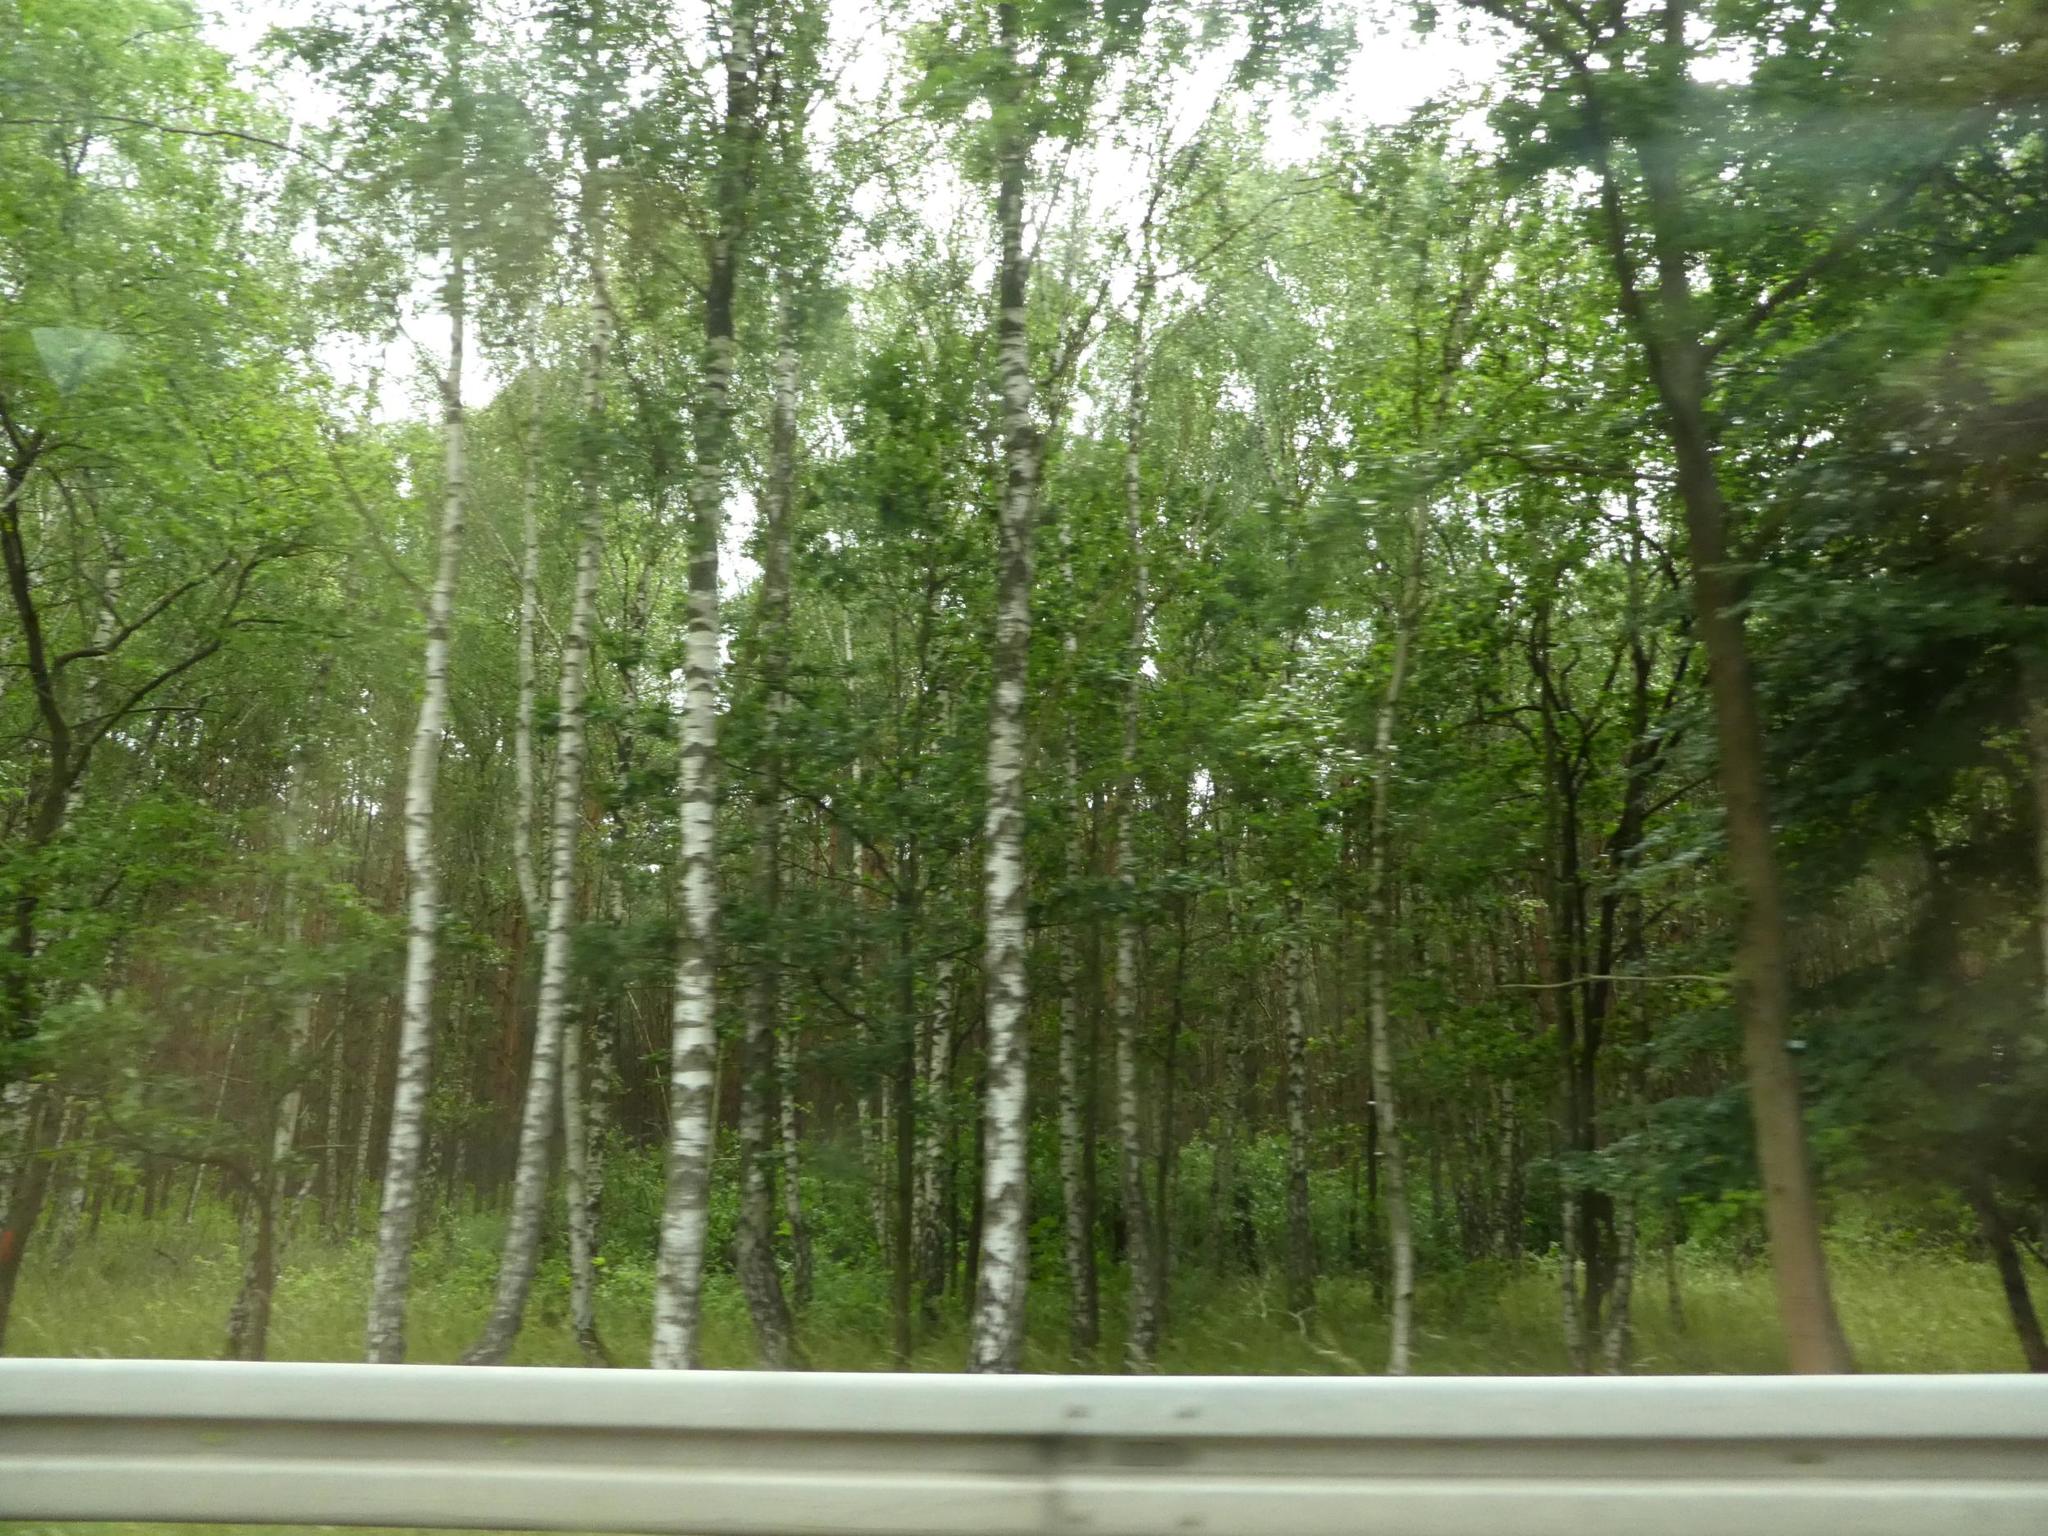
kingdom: Plantae
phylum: Tracheophyta
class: Magnoliopsida
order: Fagales
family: Betulaceae
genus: Betula
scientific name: Betula pendula
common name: Silver birch
